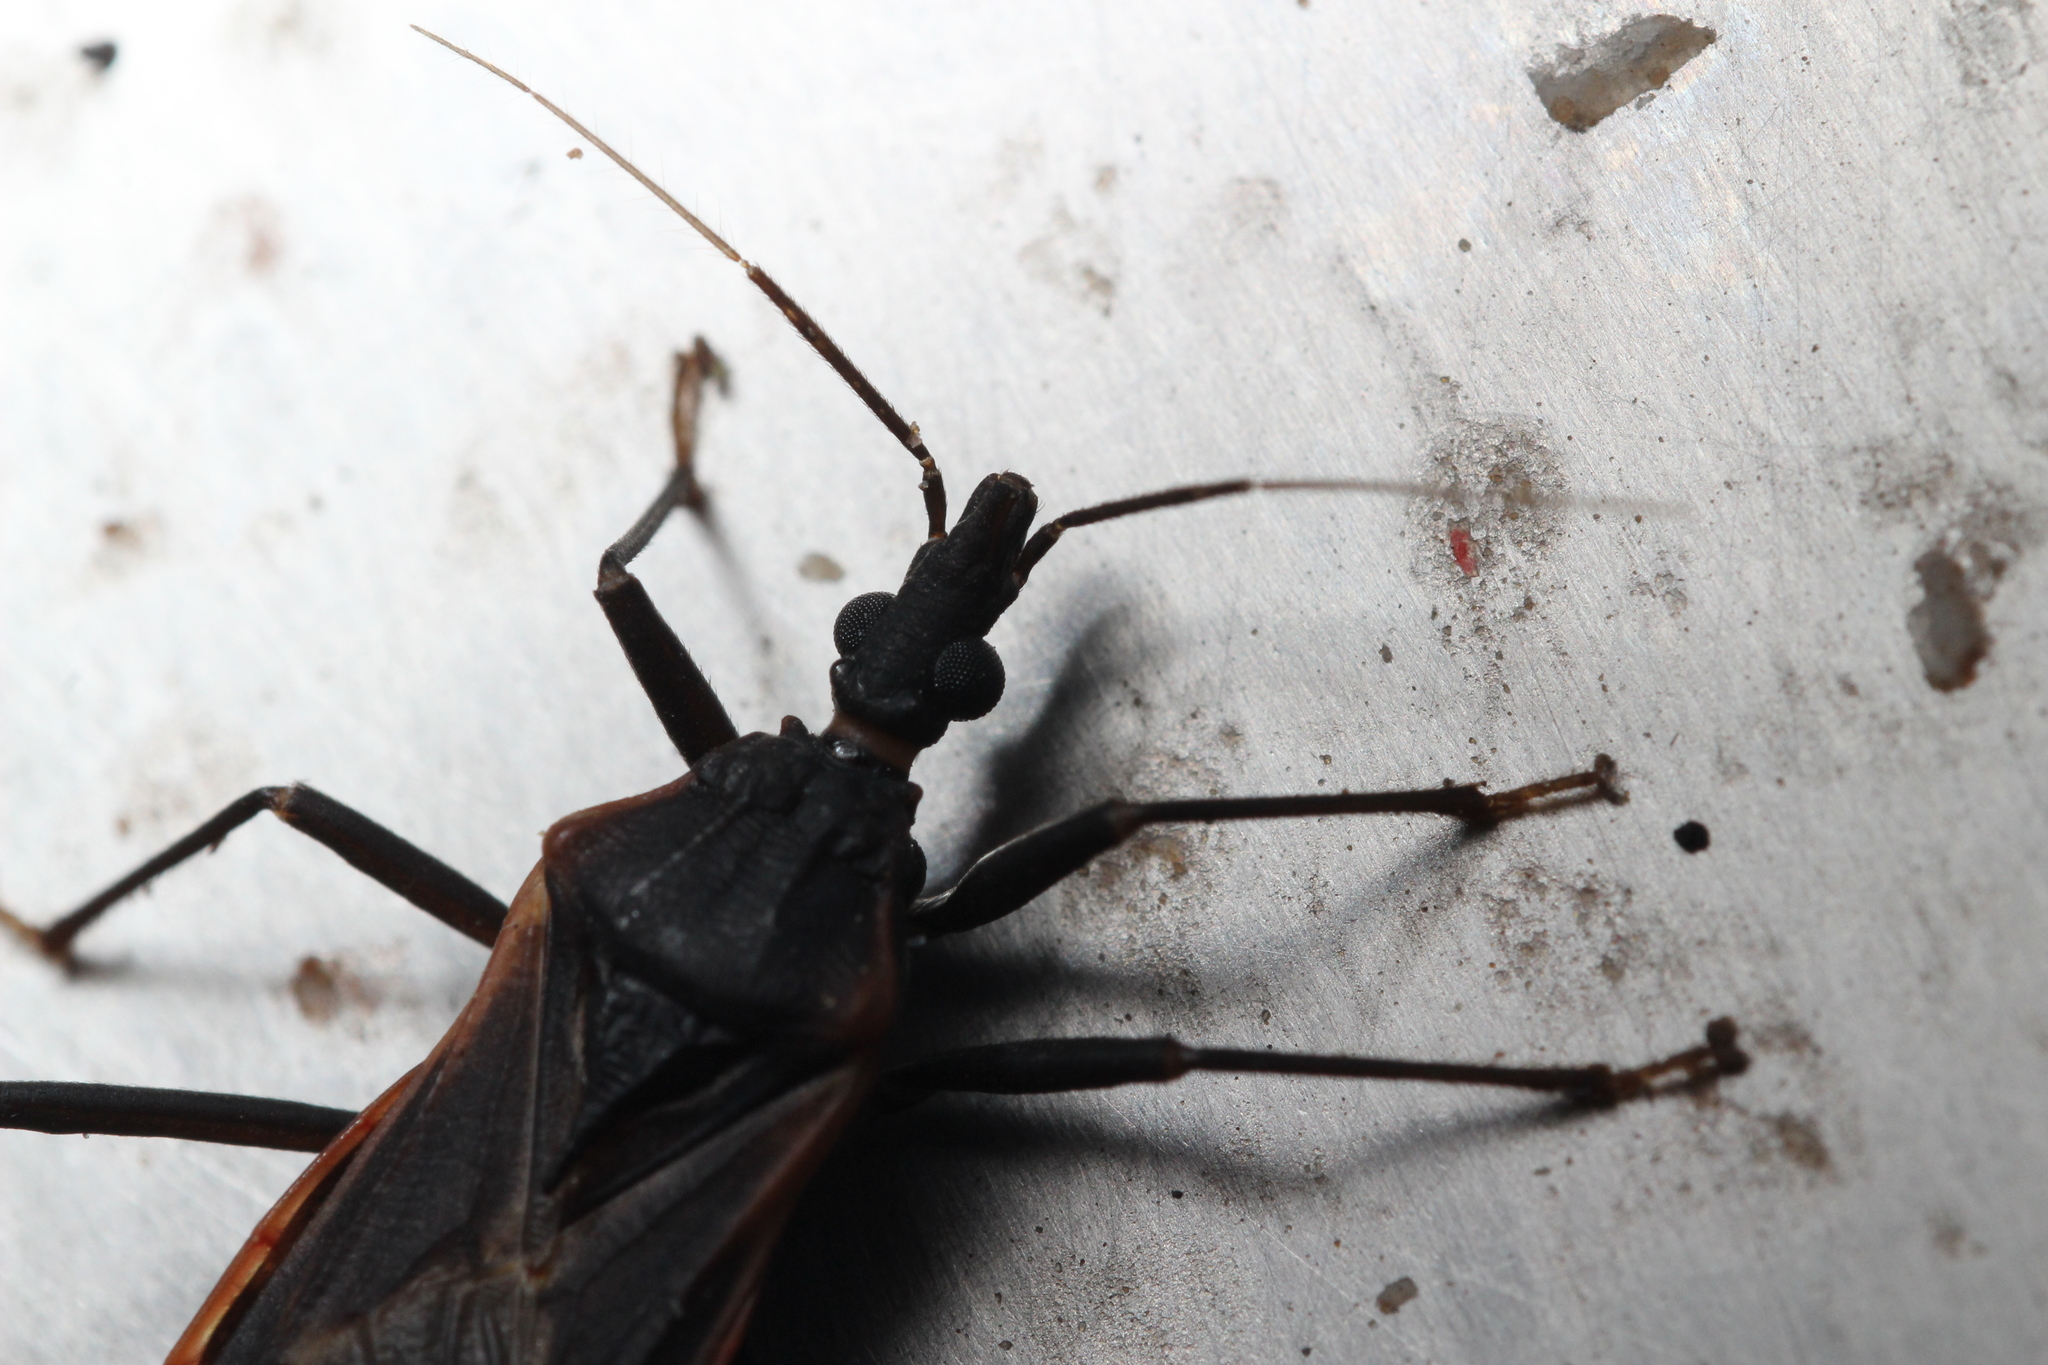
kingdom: Animalia
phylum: Arthropoda
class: Insecta
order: Hemiptera
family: Reduviidae
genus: Triatoma
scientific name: Triatoma rubida
